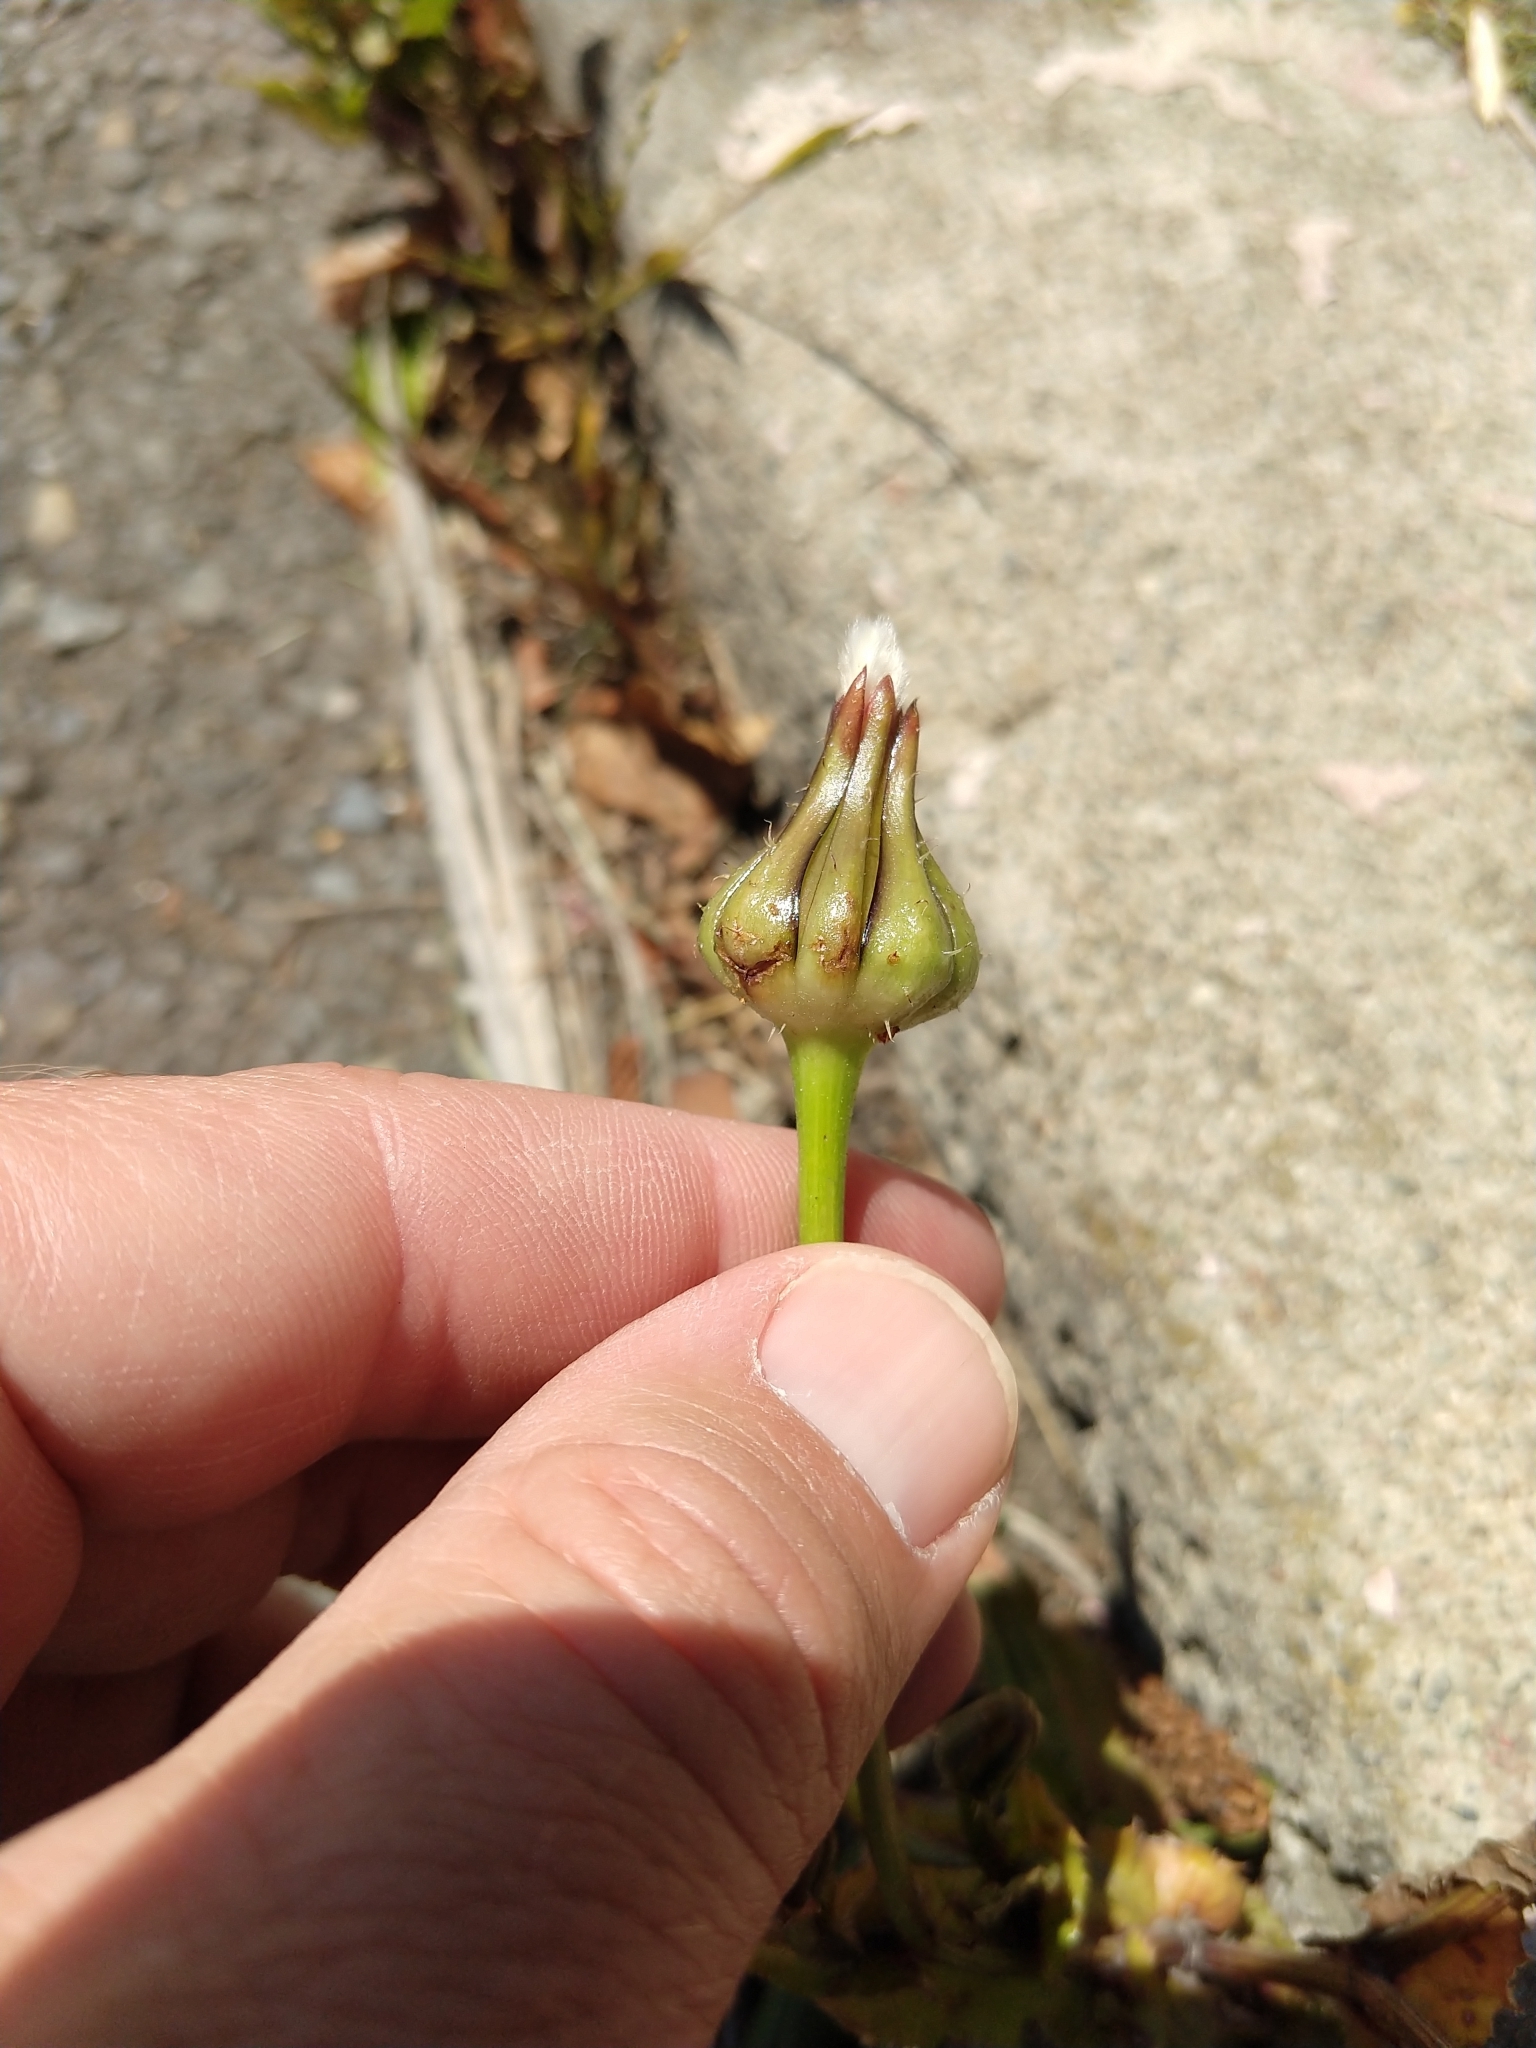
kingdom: Plantae
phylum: Tracheophyta
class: Magnoliopsida
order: Asterales
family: Asteraceae
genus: Urospermum
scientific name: Urospermum picroides
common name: False hawkbit
